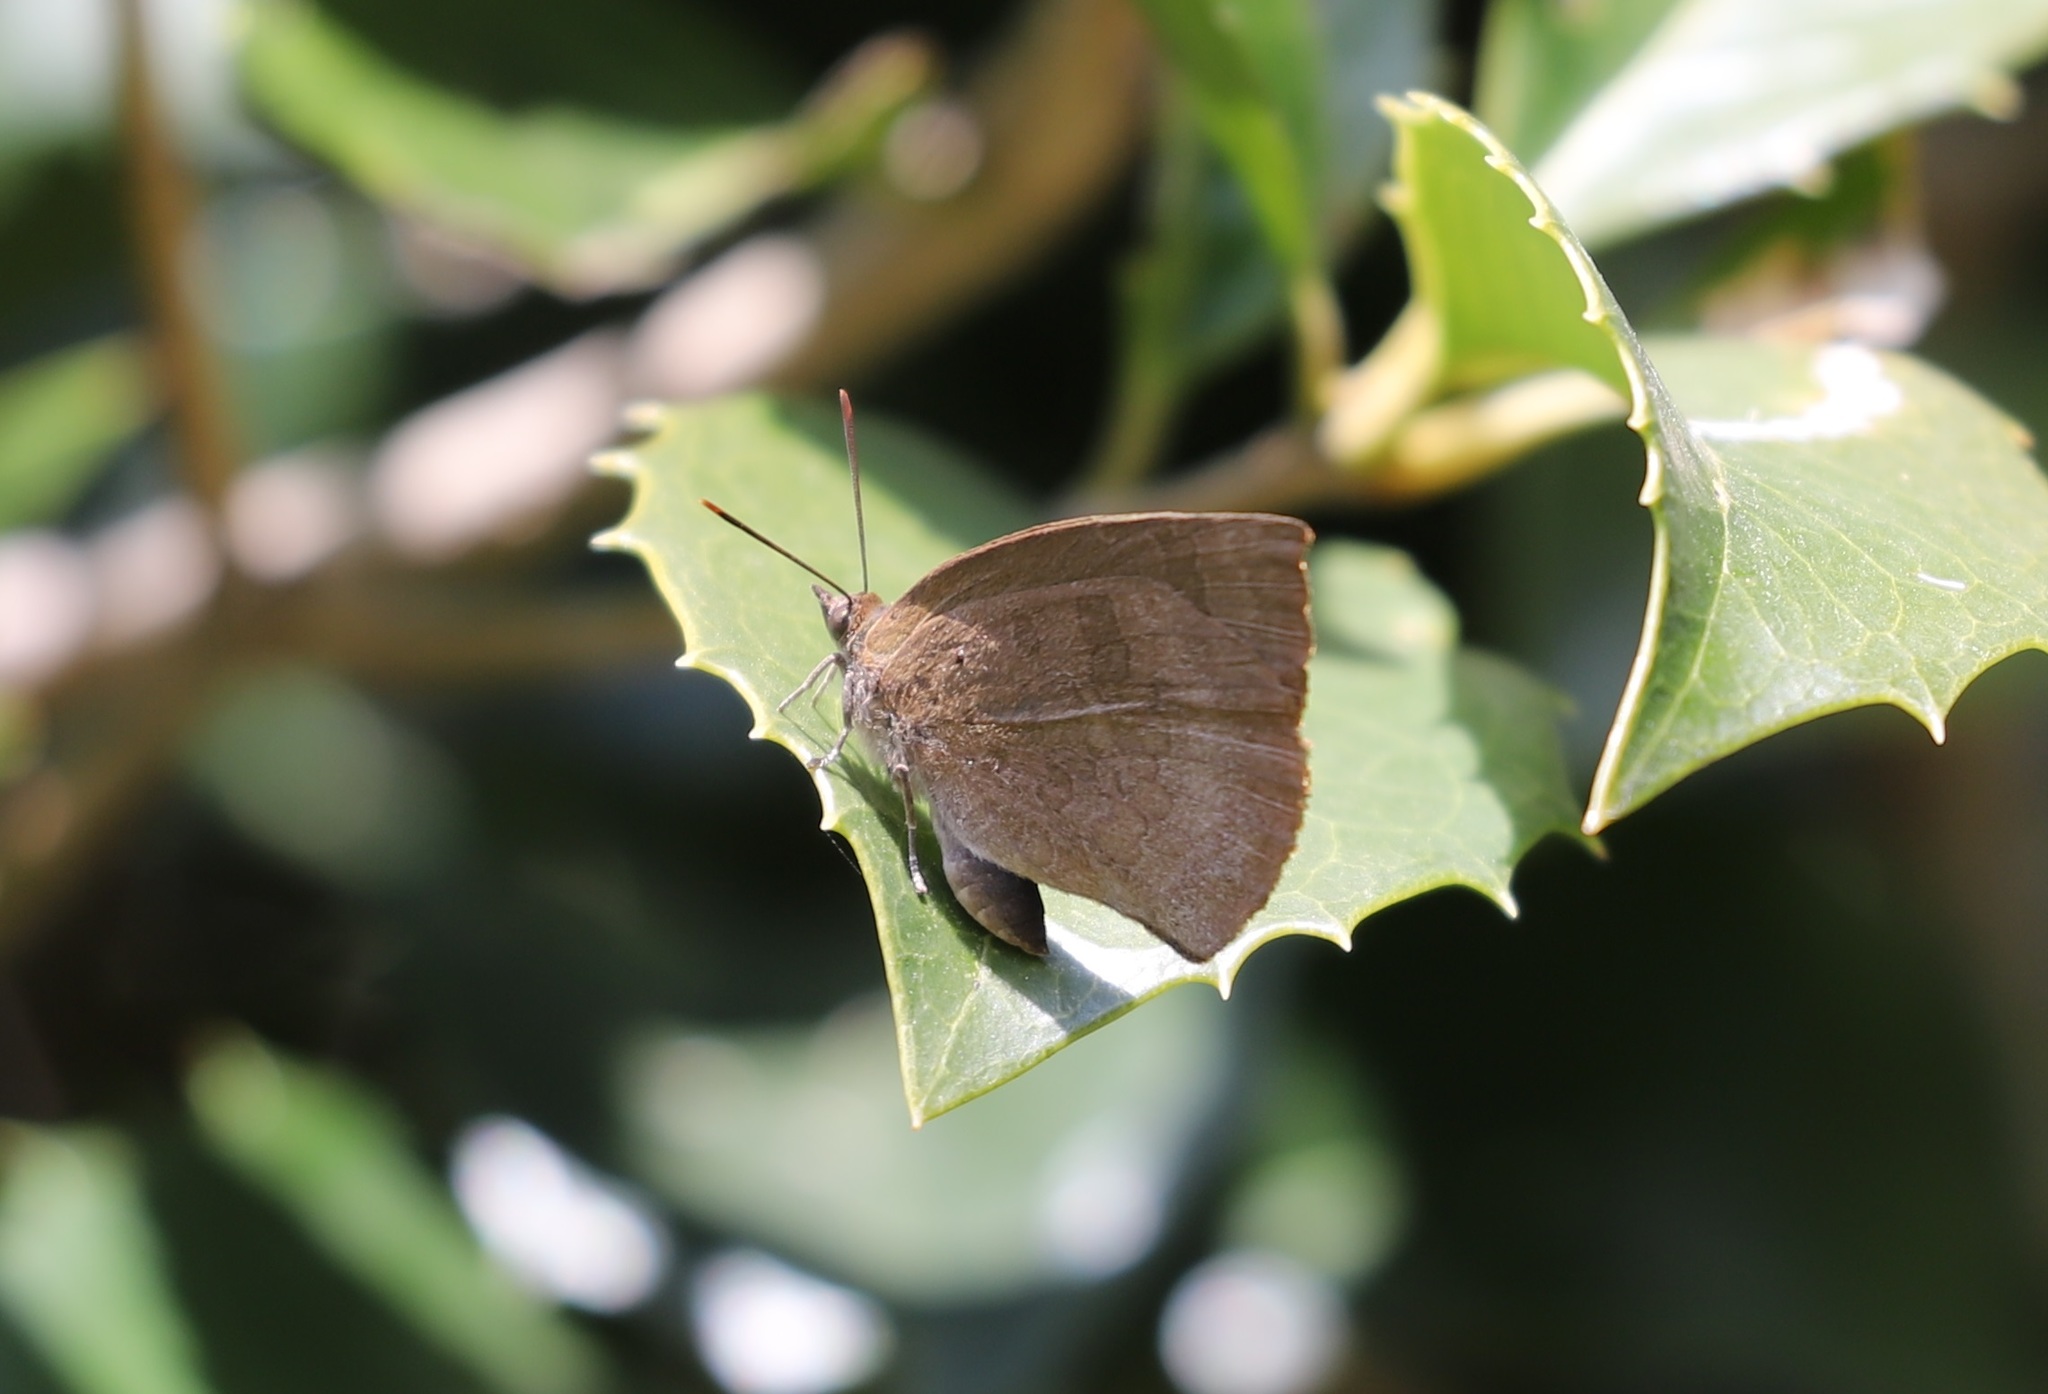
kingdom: Animalia
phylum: Arthropoda
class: Insecta
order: Lepidoptera
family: Lycaenidae
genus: Arhopala
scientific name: Arhopala japonica
